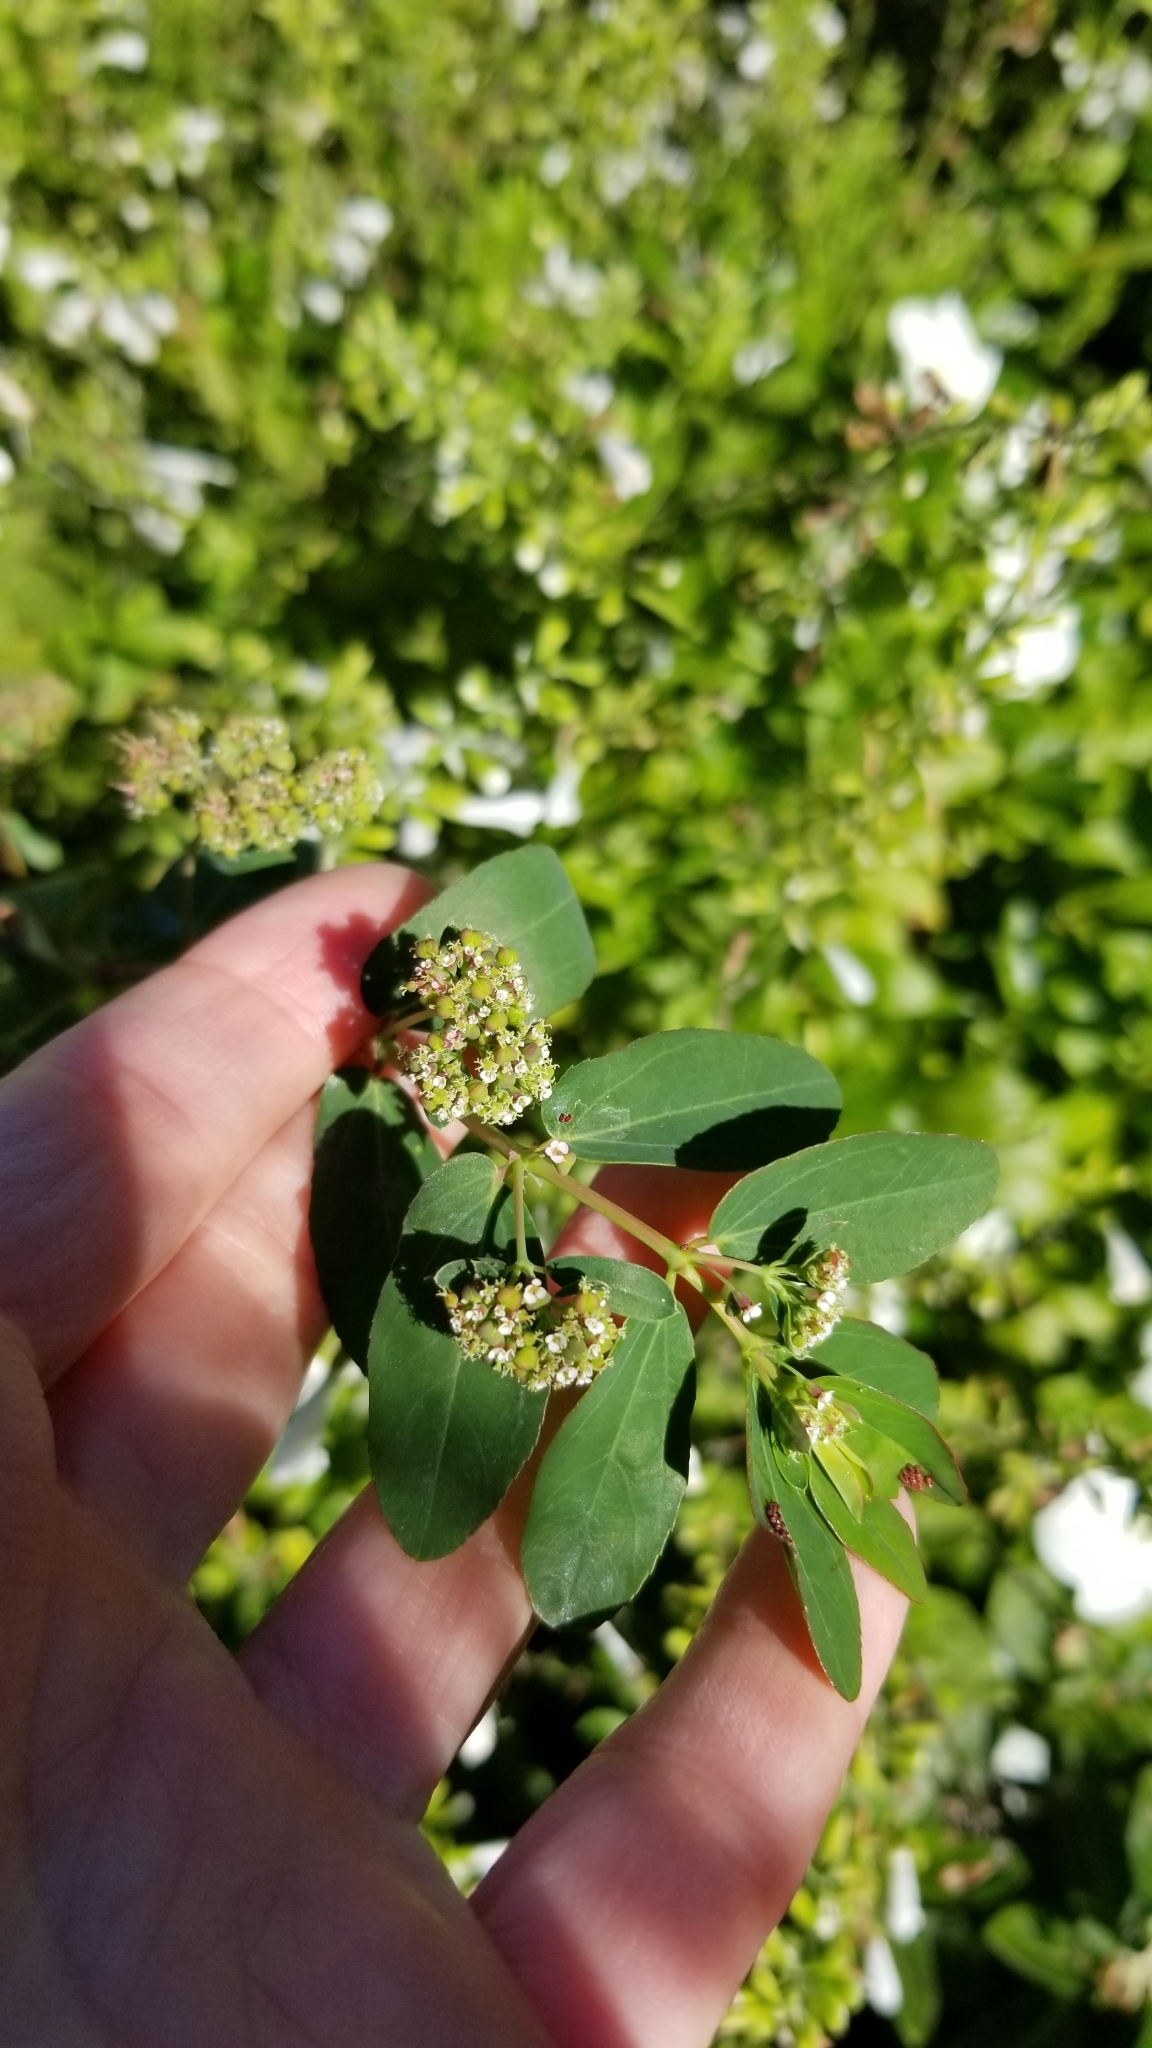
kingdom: Plantae
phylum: Tracheophyta
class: Magnoliopsida
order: Malpighiales
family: Euphorbiaceae
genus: Euphorbia
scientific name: Euphorbia hypericifolia
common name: Graceful sandmat
